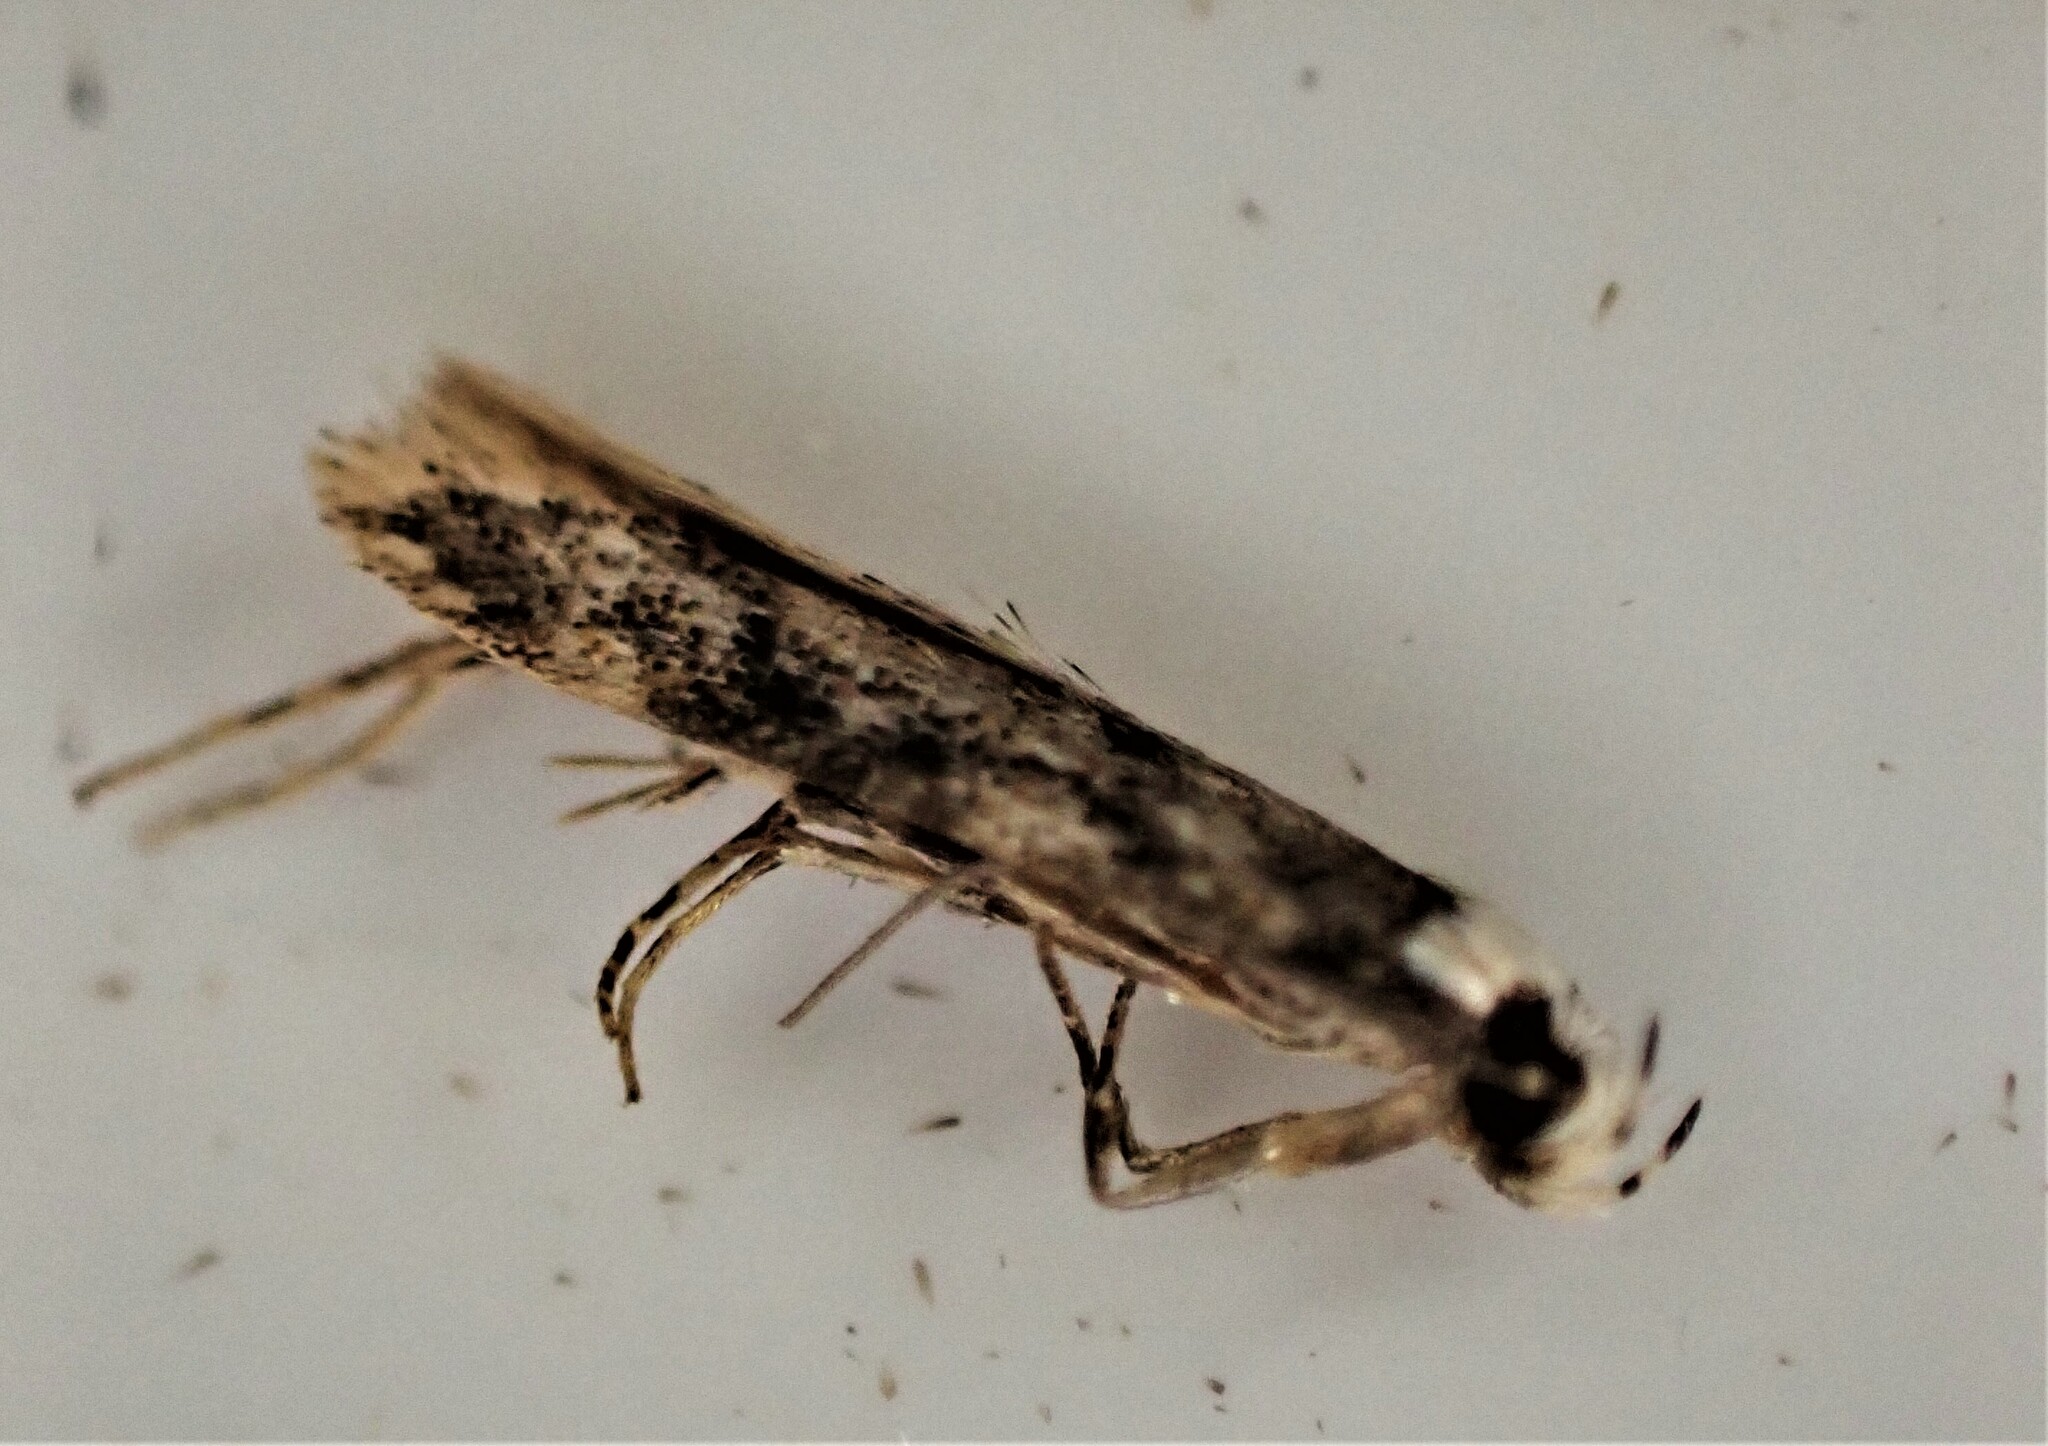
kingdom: Animalia
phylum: Arthropoda
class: Insecta
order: Lepidoptera
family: Oecophoridae
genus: Endrosis
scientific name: Endrosis sarcitrella
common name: White-shouldered house moth
